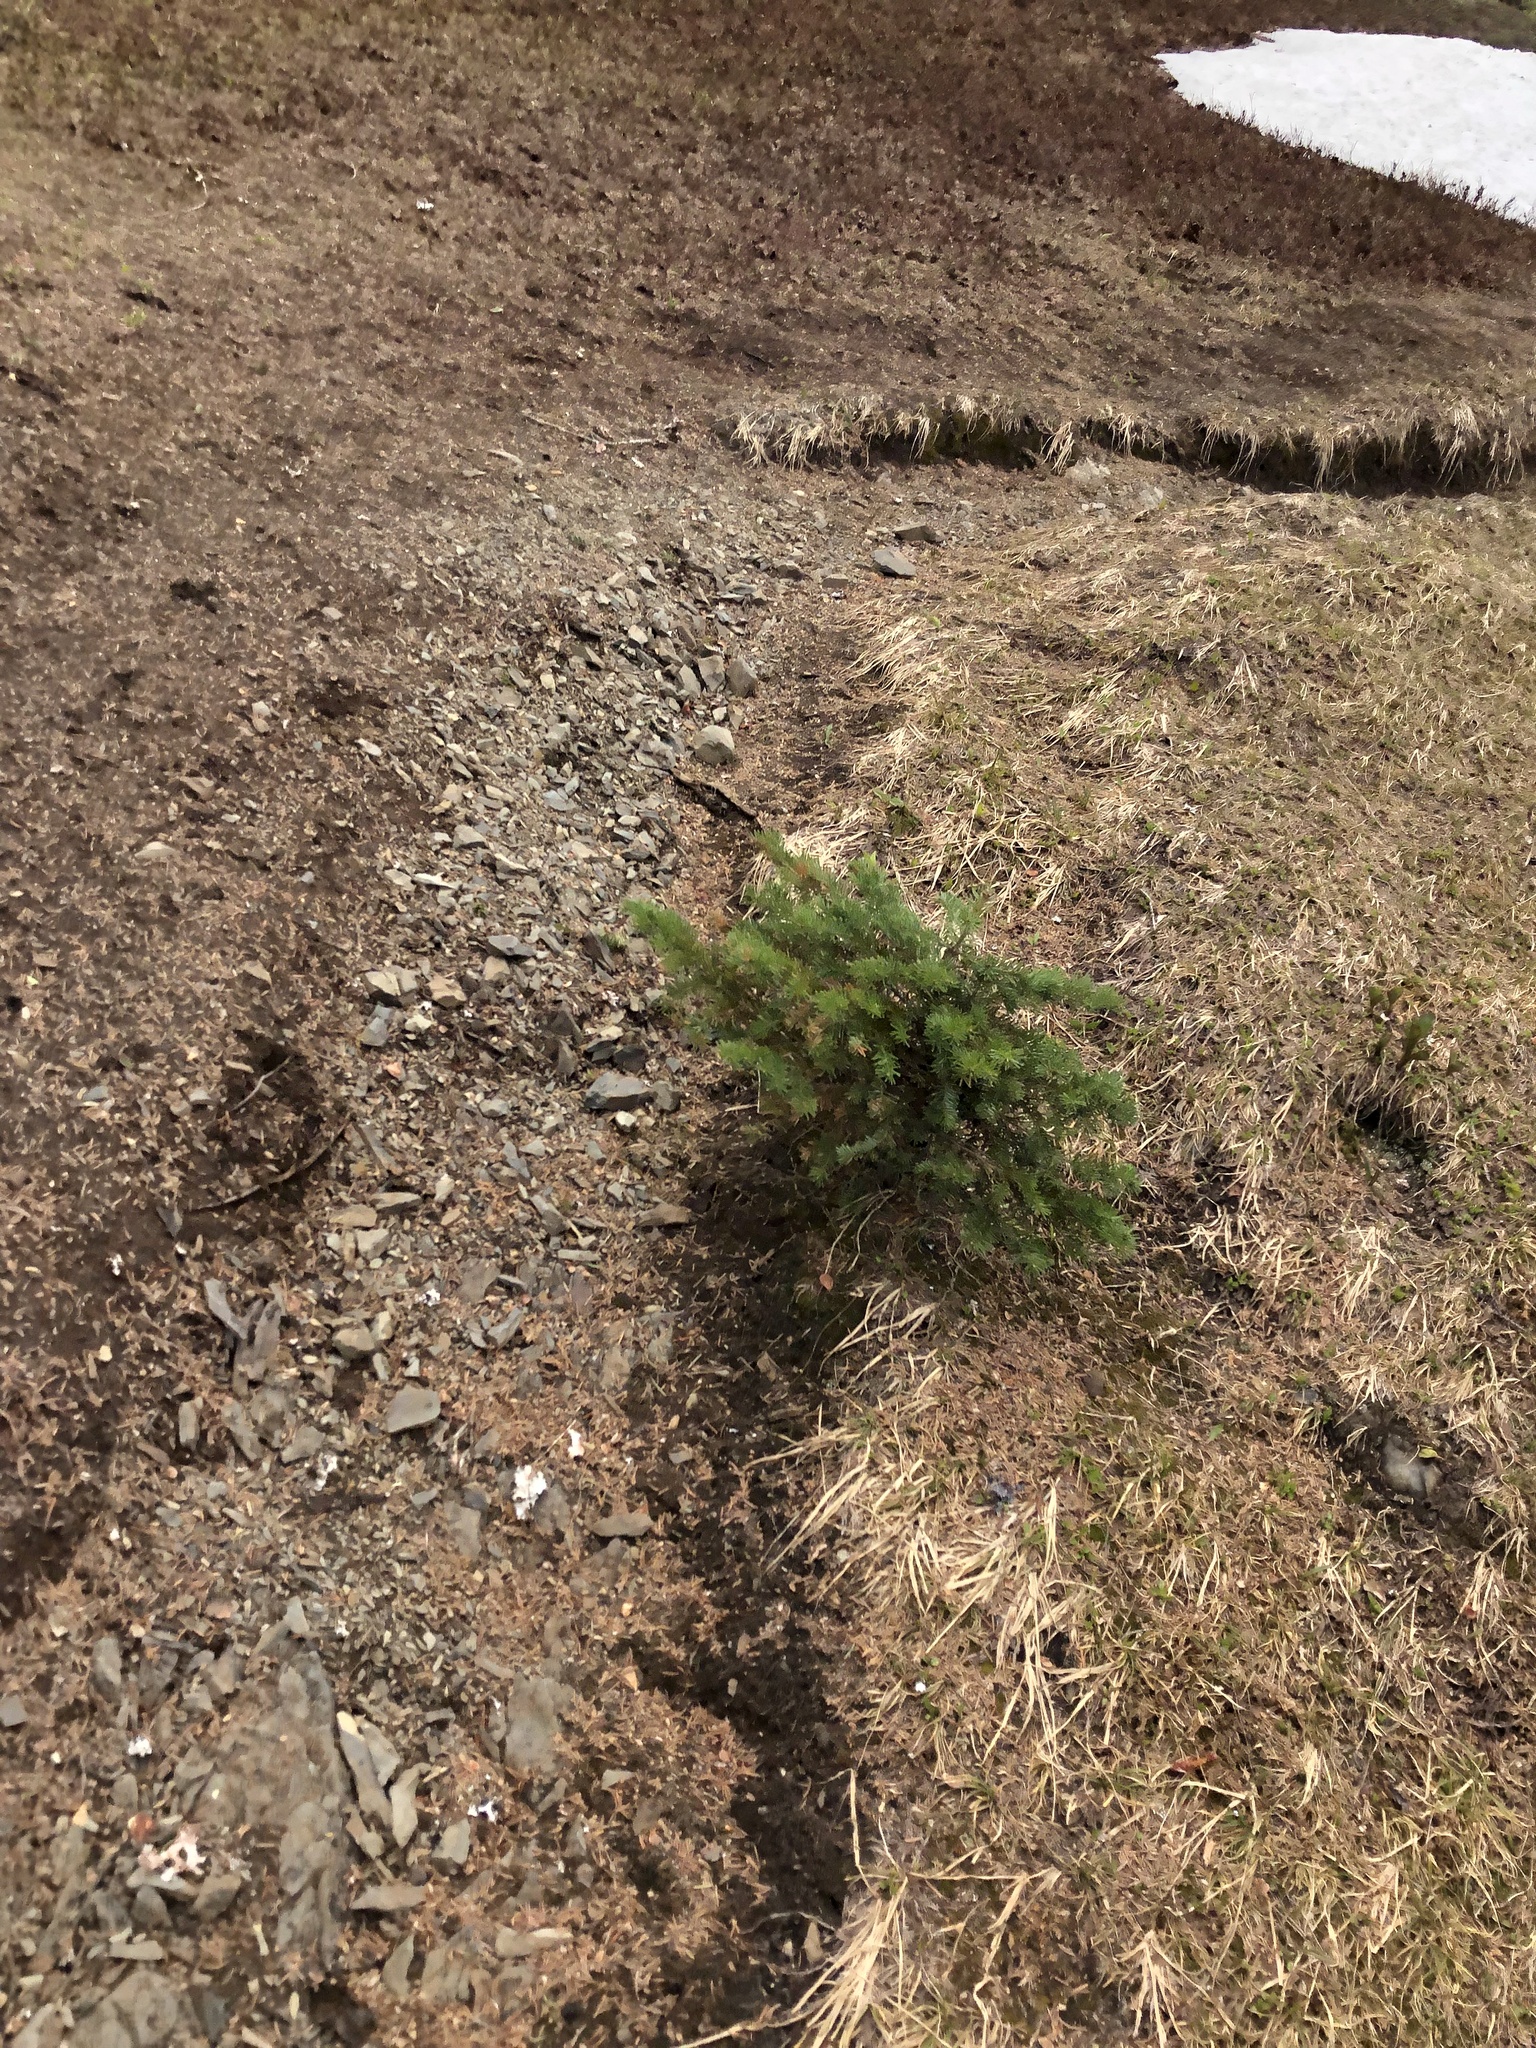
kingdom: Plantae
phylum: Tracheophyta
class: Pinopsida
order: Pinales
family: Pinaceae
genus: Abies
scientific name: Abies lasiocarpa
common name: Subalpine fir
